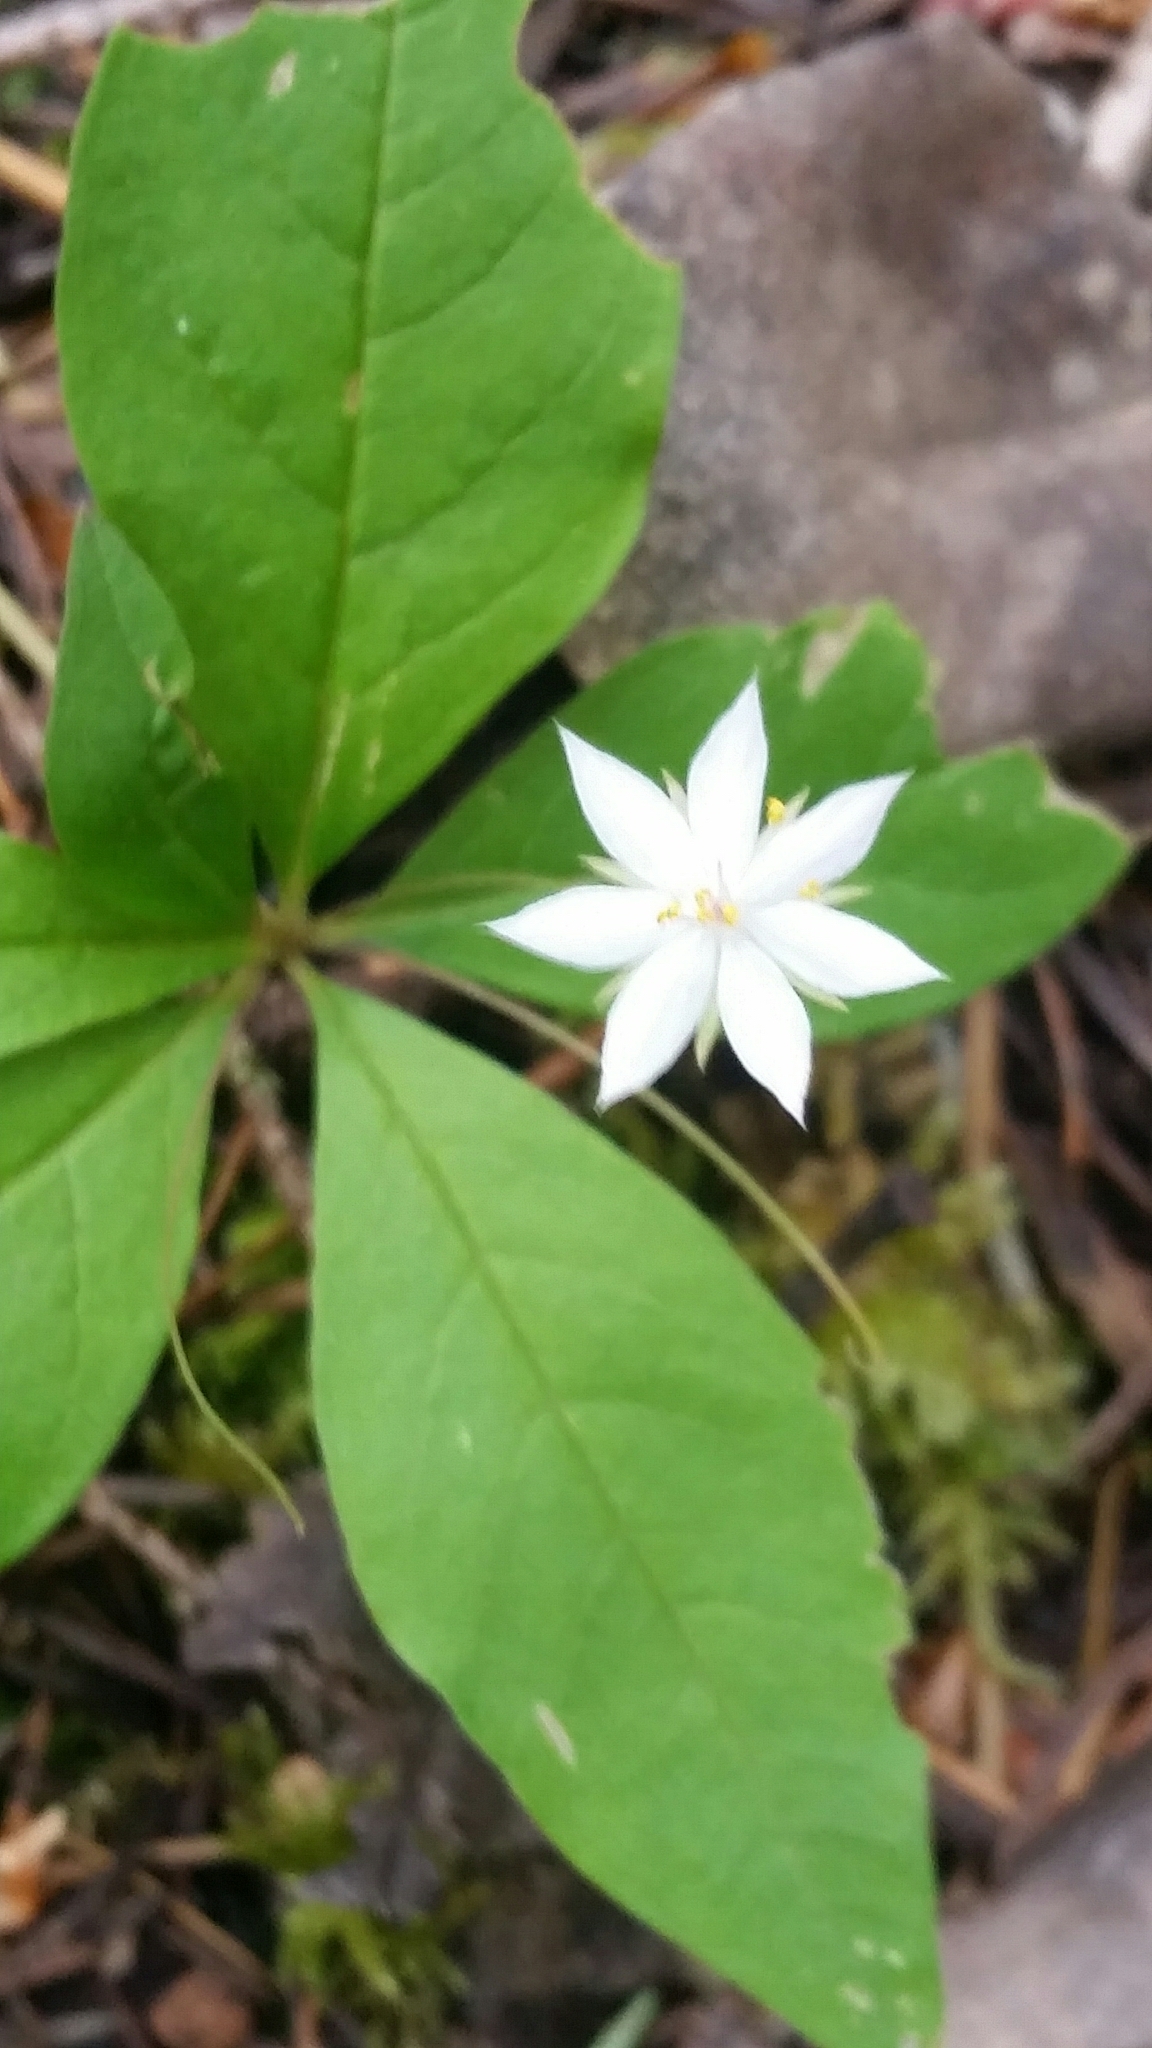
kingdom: Plantae
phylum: Tracheophyta
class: Magnoliopsida
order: Ericales
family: Primulaceae
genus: Lysimachia
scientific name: Lysimachia latifolia
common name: Pacific starflower
